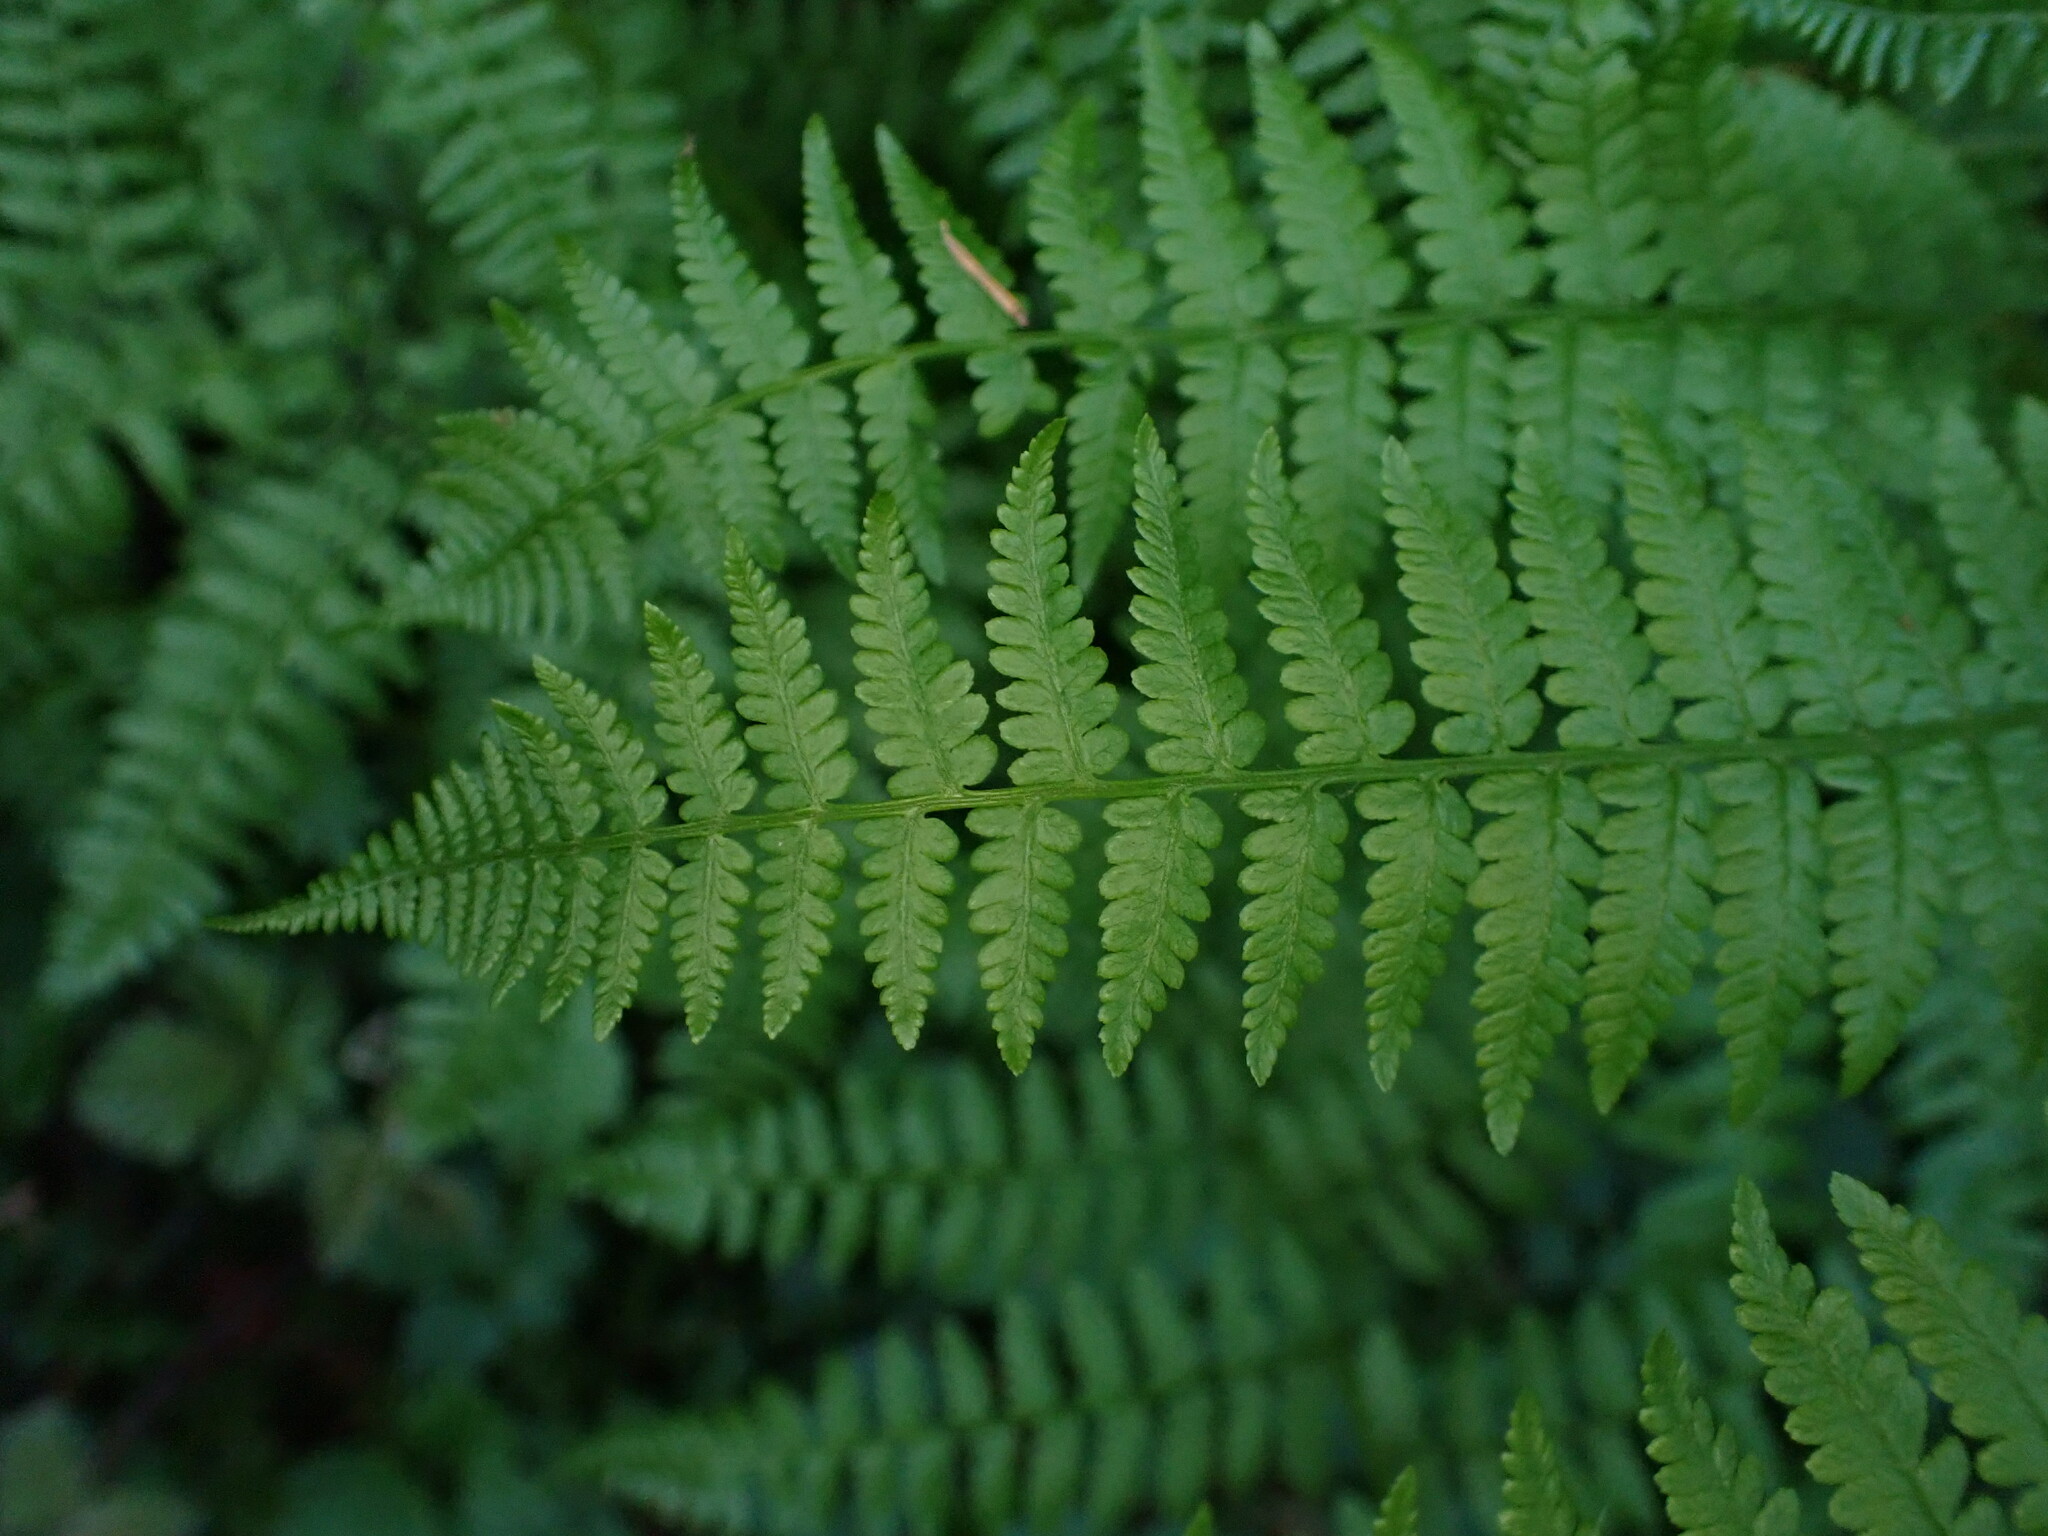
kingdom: Plantae
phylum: Tracheophyta
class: Polypodiopsida
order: Polypodiales
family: Athyriaceae
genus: Athyrium
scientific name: Athyrium cyclosorum
